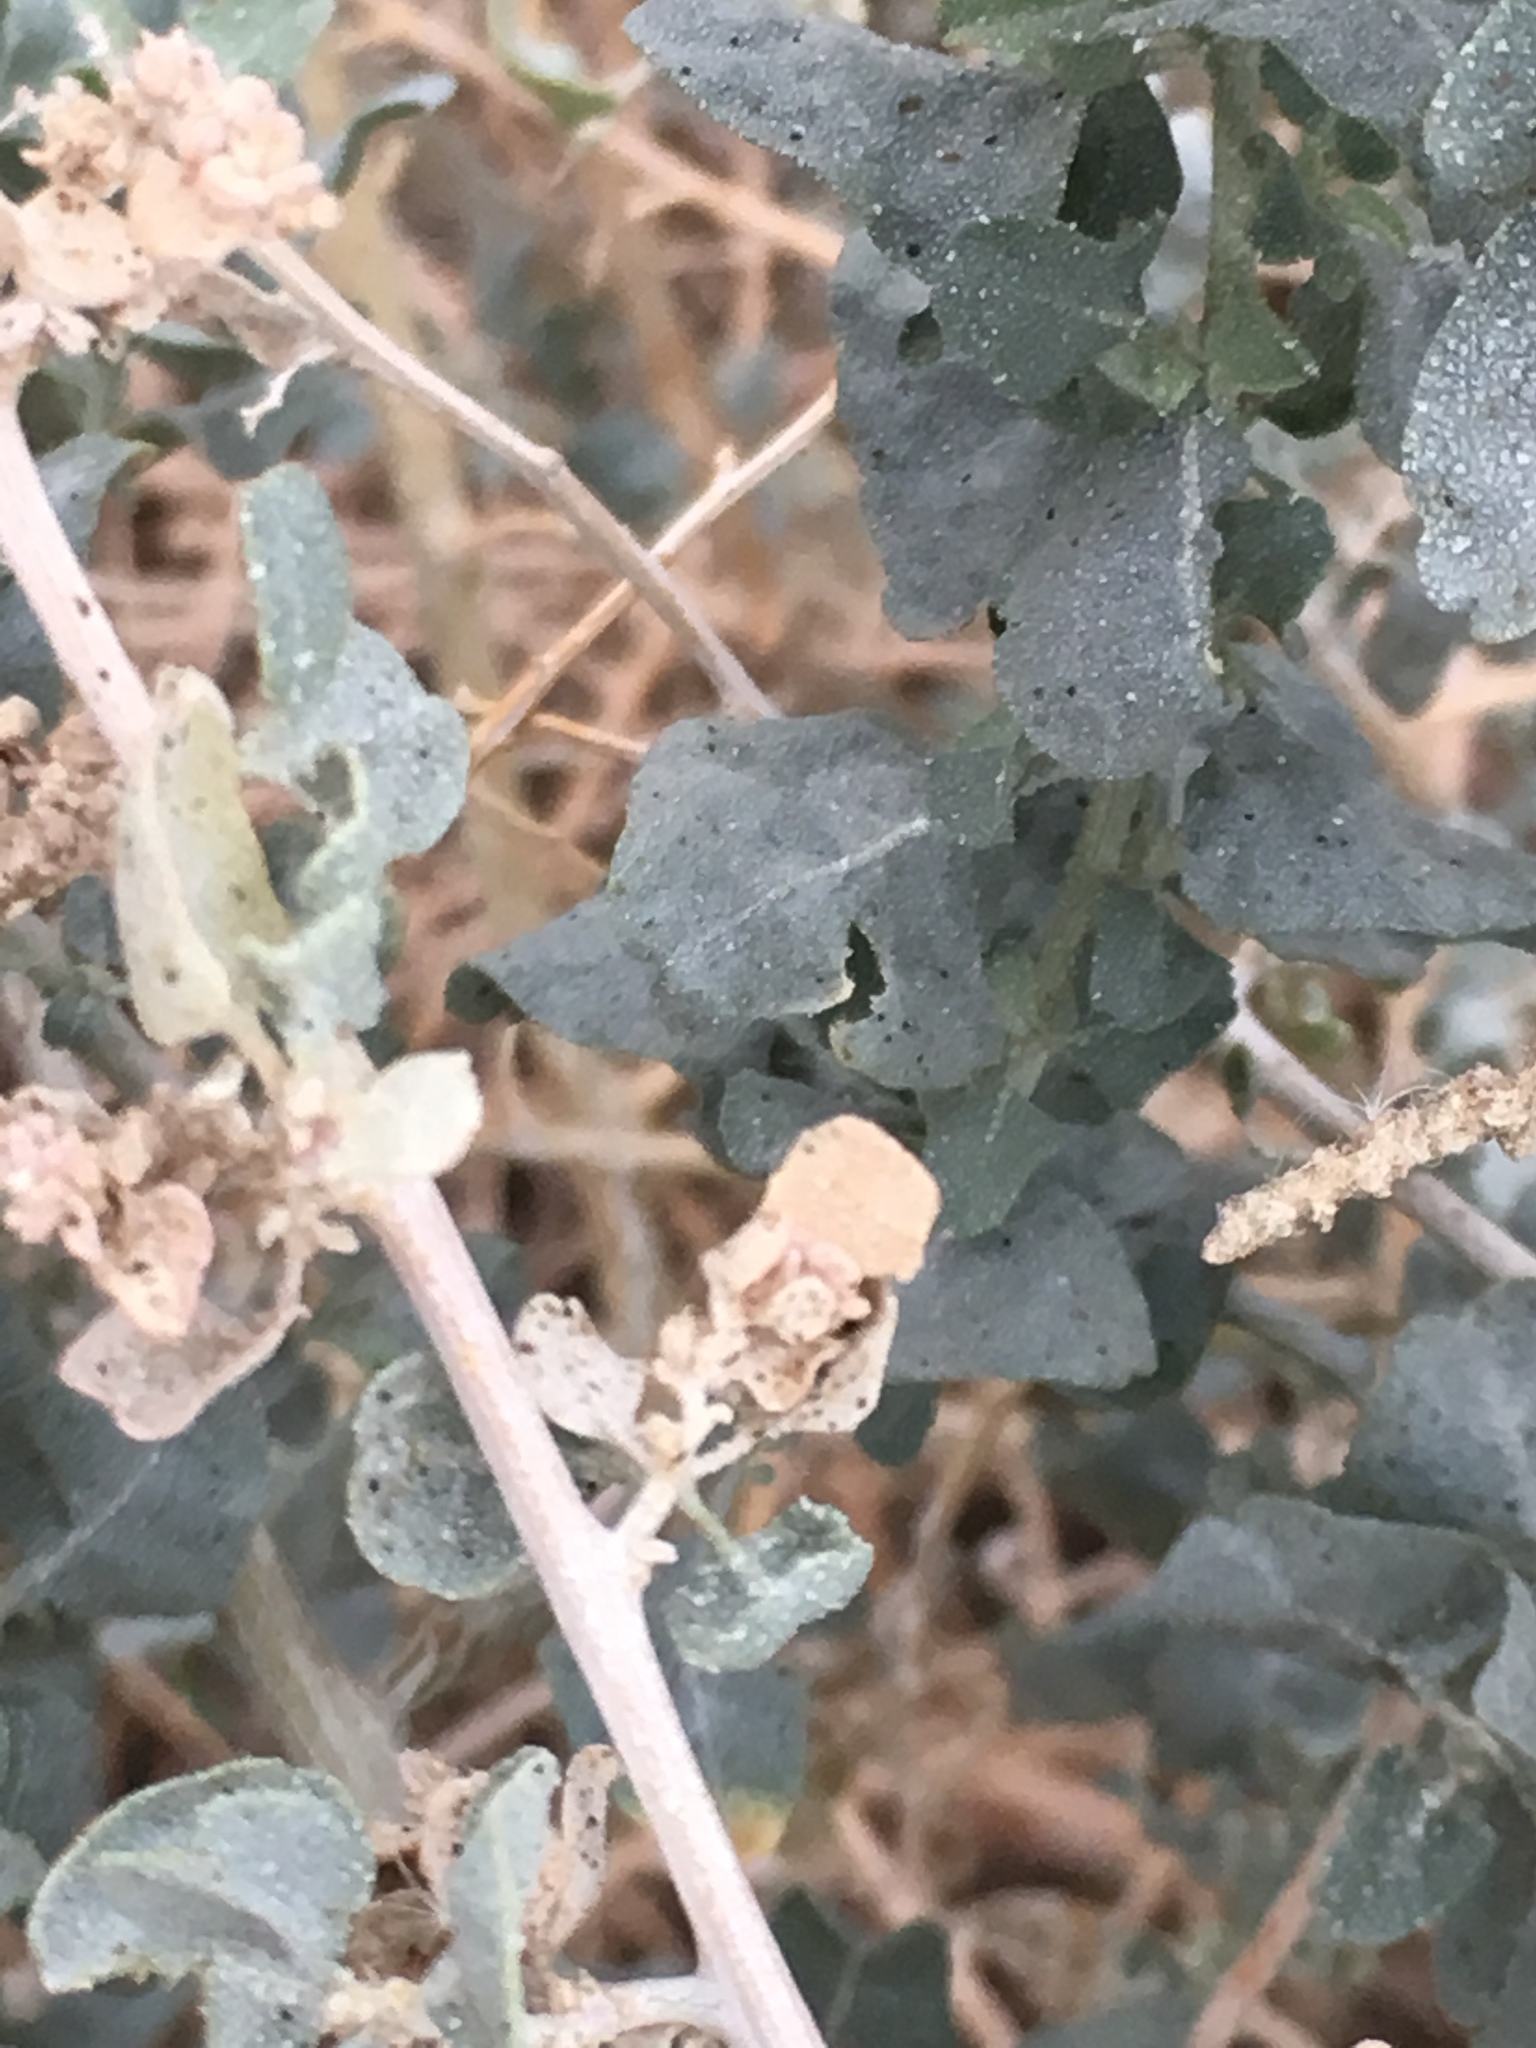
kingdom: Plantae
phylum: Tracheophyta
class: Magnoliopsida
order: Caryophyllales
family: Amaranthaceae
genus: Atriplex
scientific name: Atriplex lentiformis
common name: Big saltbush
